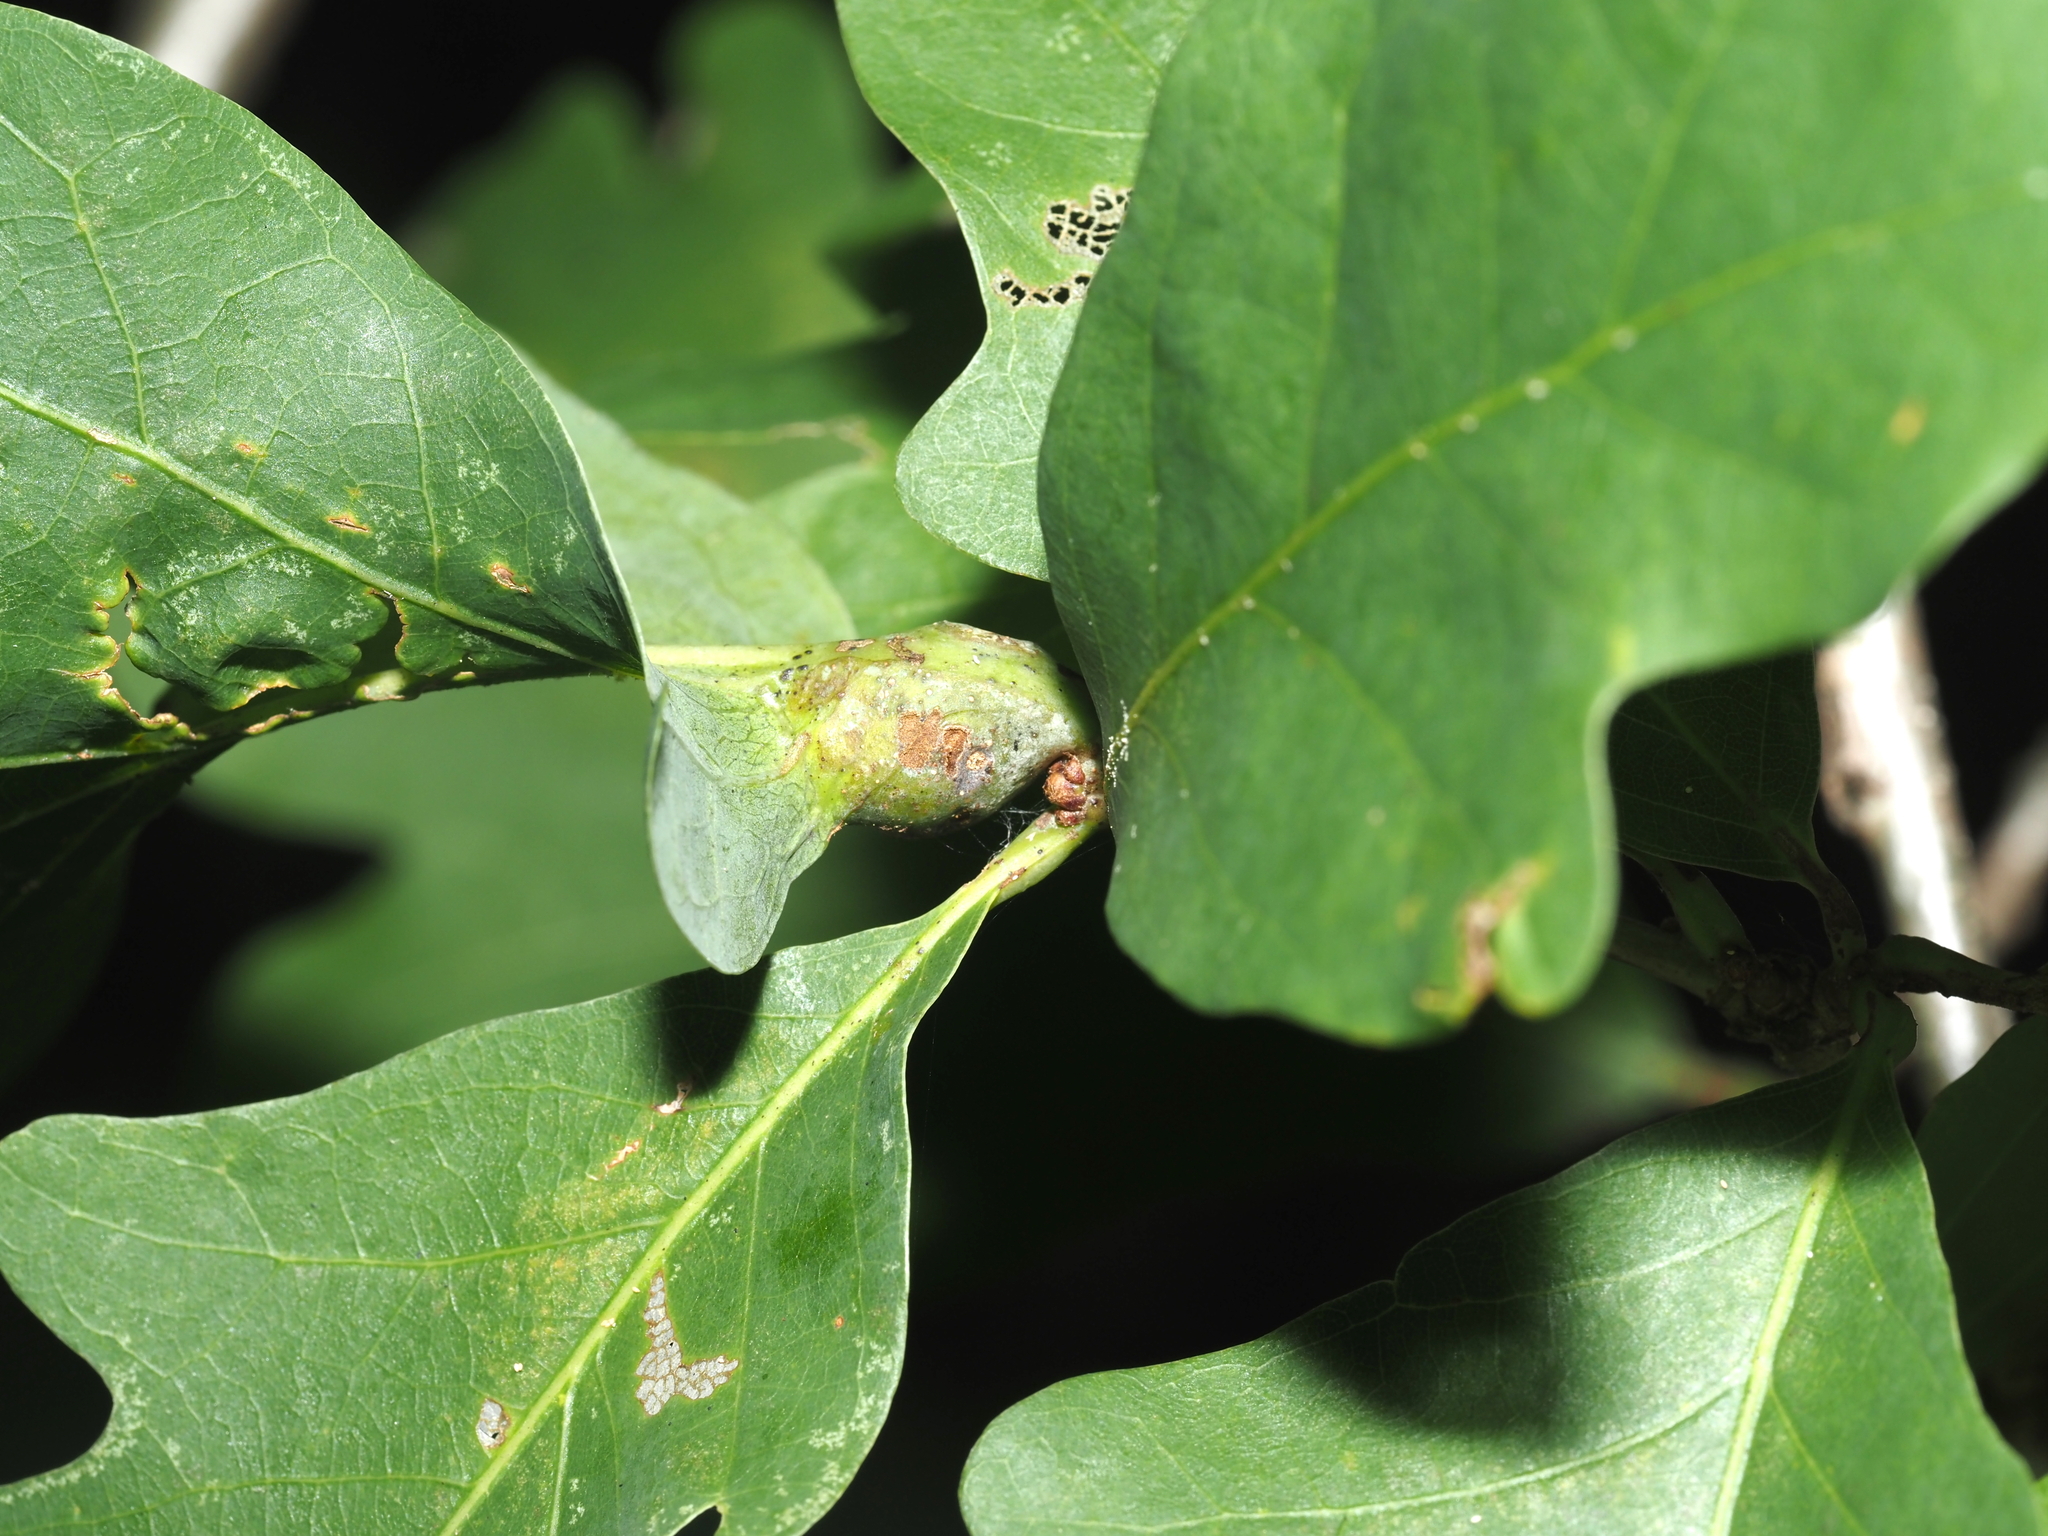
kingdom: Animalia
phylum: Arthropoda
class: Insecta
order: Hymenoptera
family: Cynipidae
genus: Andricus
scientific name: Andricus
